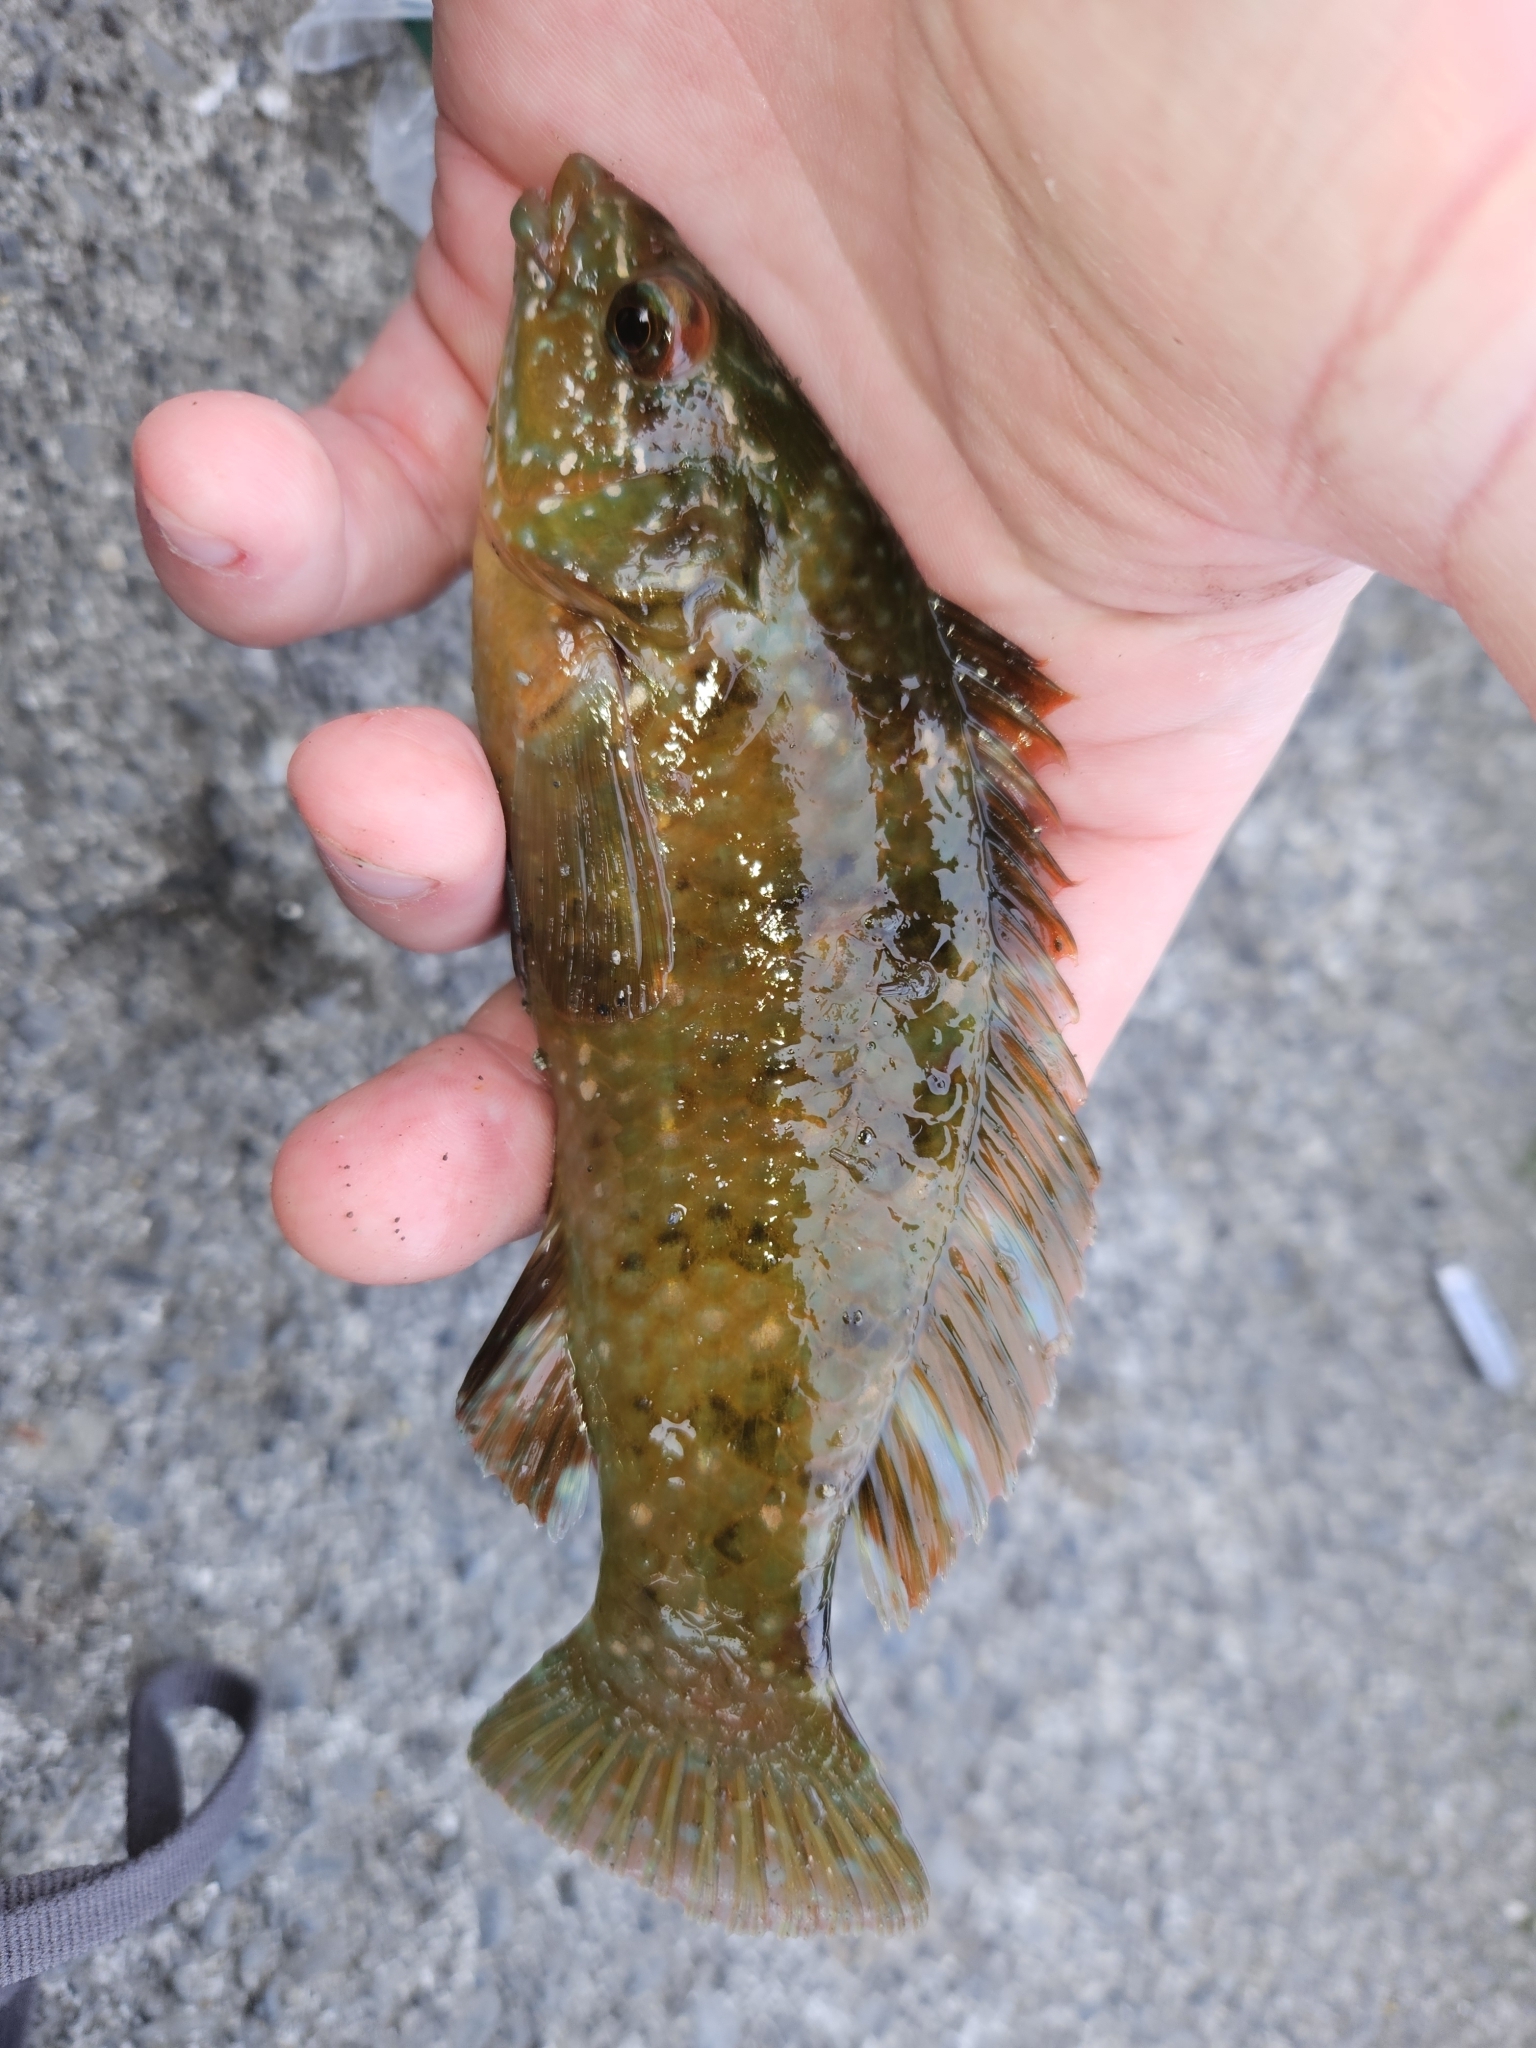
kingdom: Animalia
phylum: Chordata
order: Perciformes
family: Labridae
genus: Notolabrus
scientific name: Notolabrus fucicola
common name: Banded parrotfish
